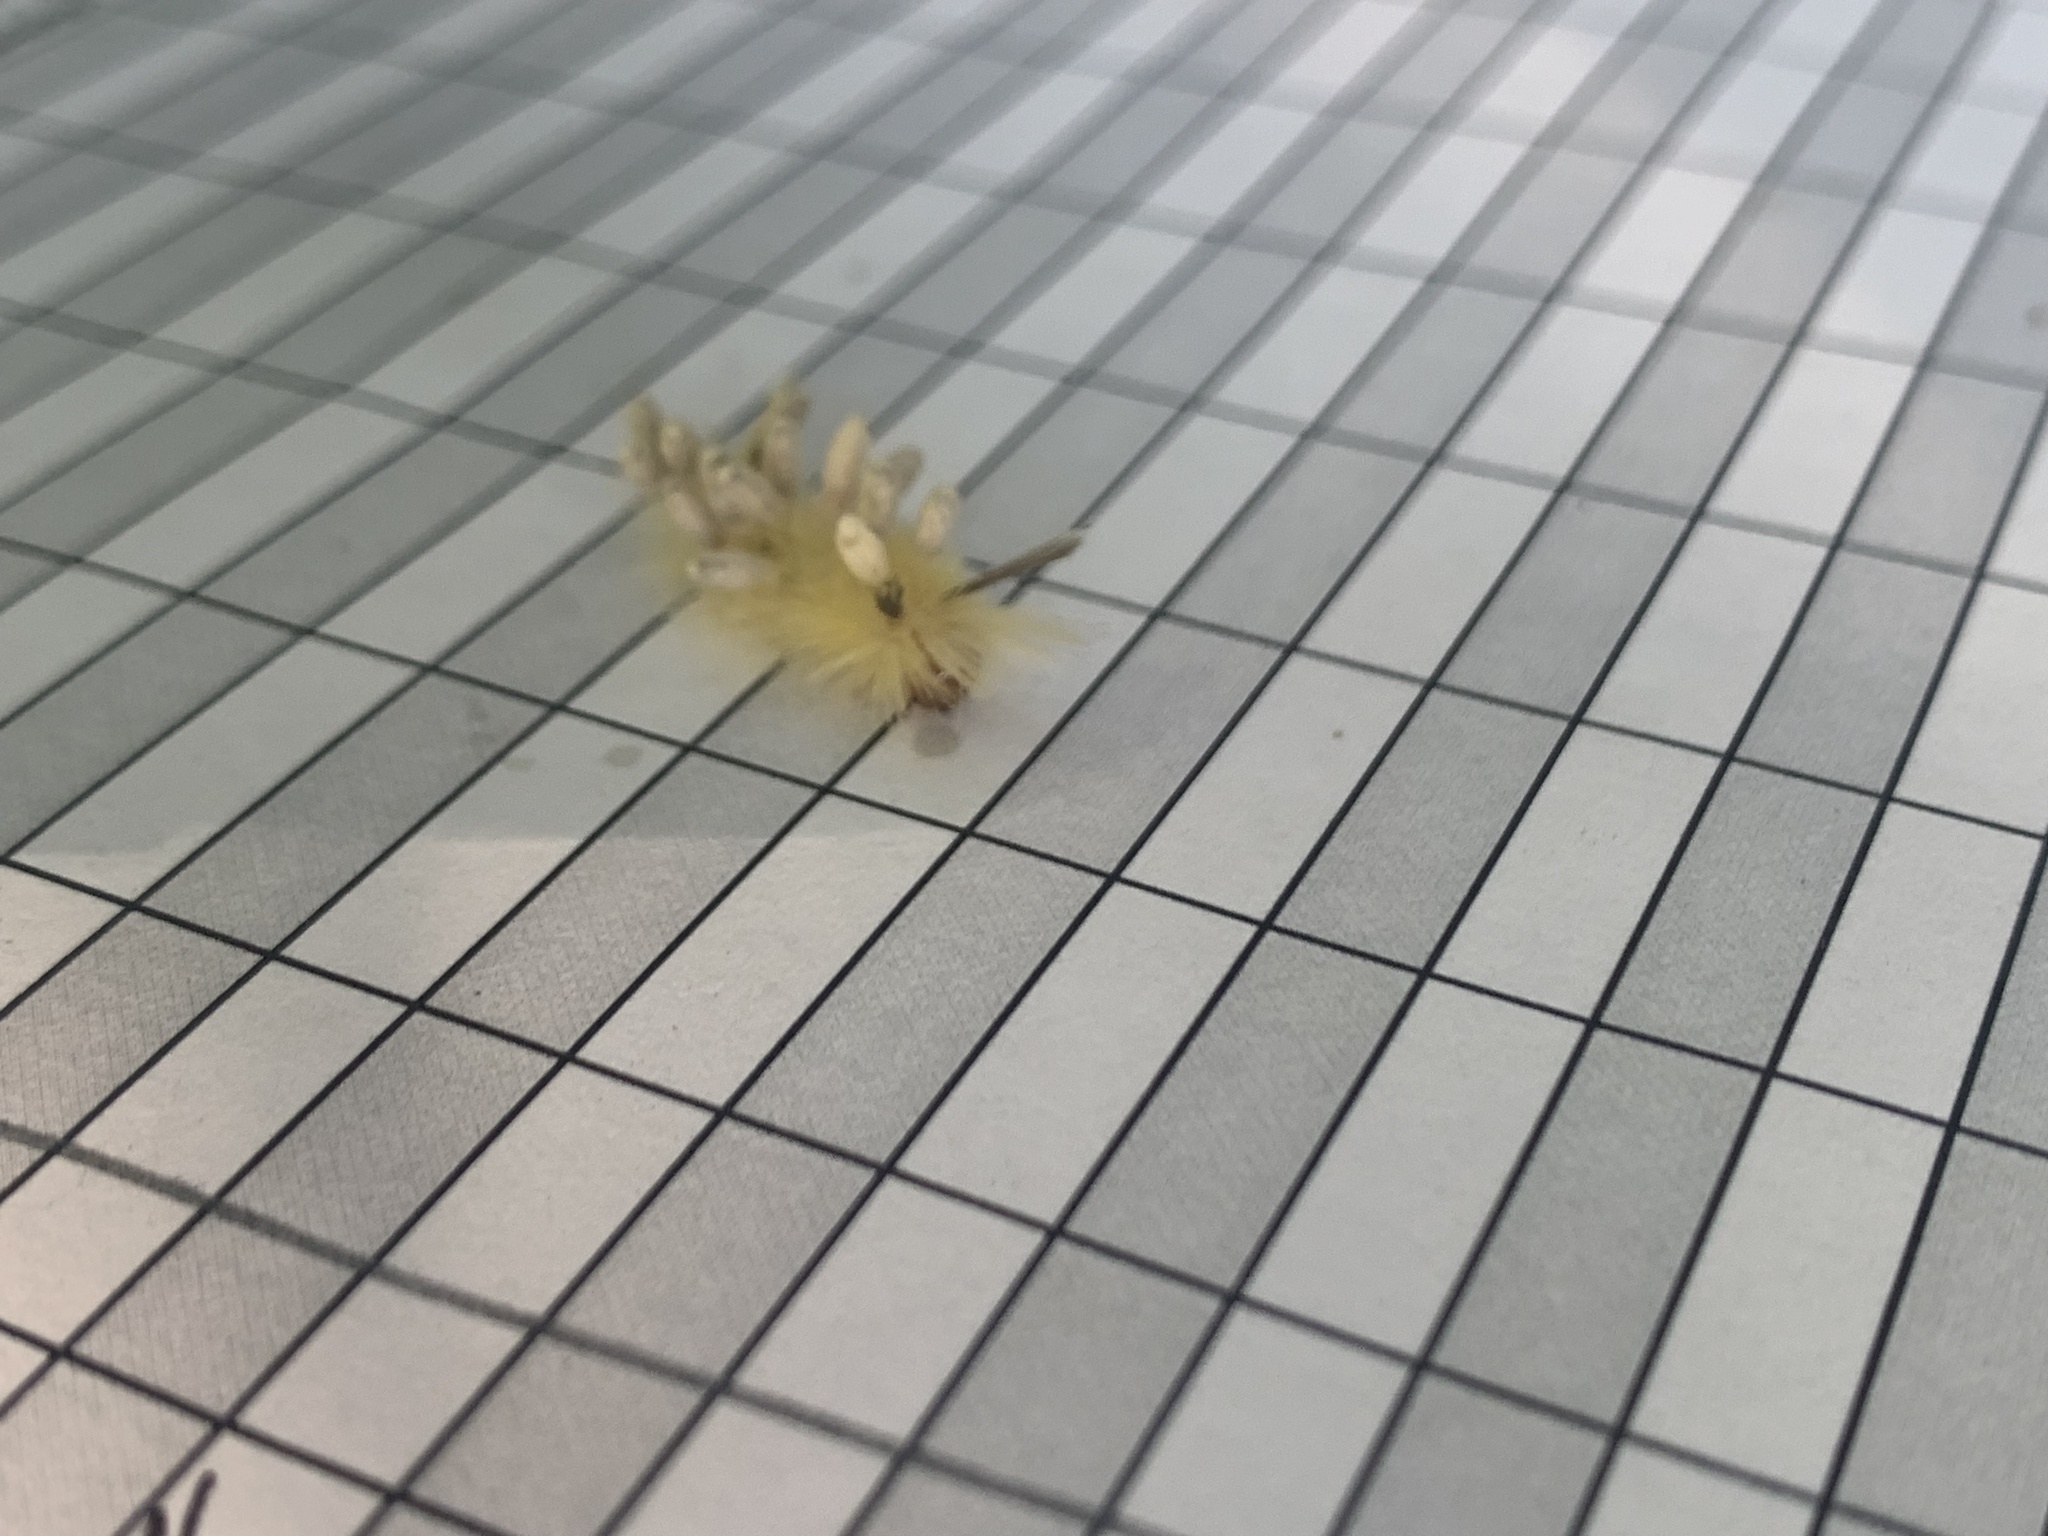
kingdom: Animalia
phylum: Arthropoda
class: Insecta
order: Lepidoptera
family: Erebidae
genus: Halysidota
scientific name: Halysidota tessellaris
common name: Banded tussock moth
